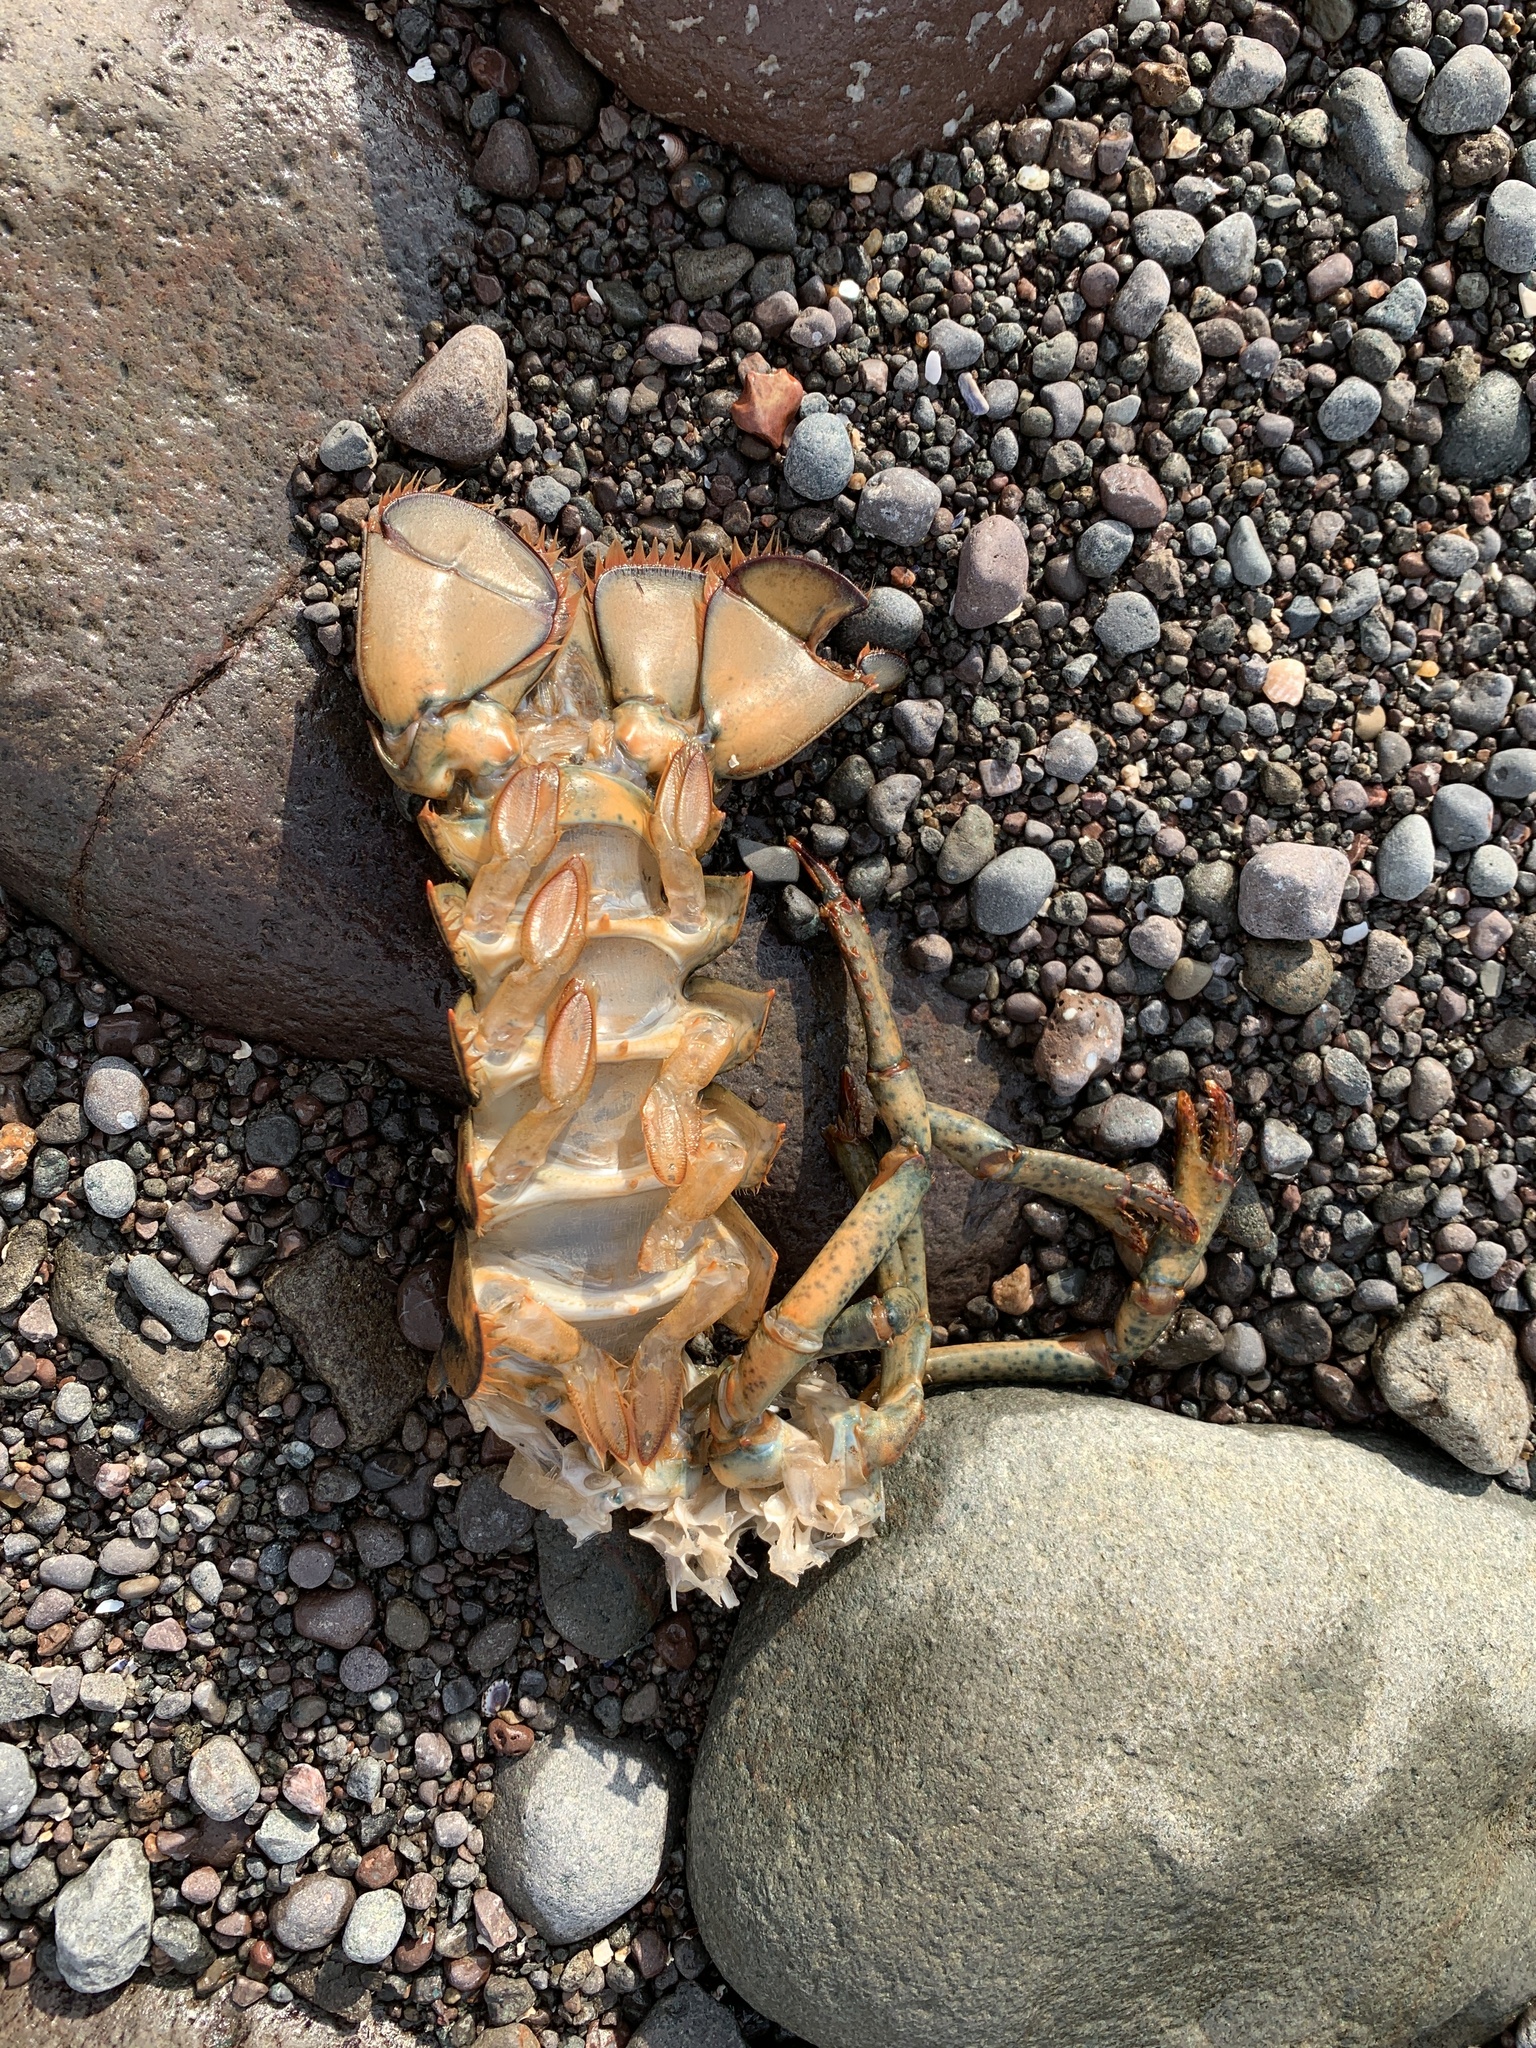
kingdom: Animalia
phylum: Arthropoda
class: Malacostraca
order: Decapoda
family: Nephropidae
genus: Homarus
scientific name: Homarus americanus
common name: American lobster
